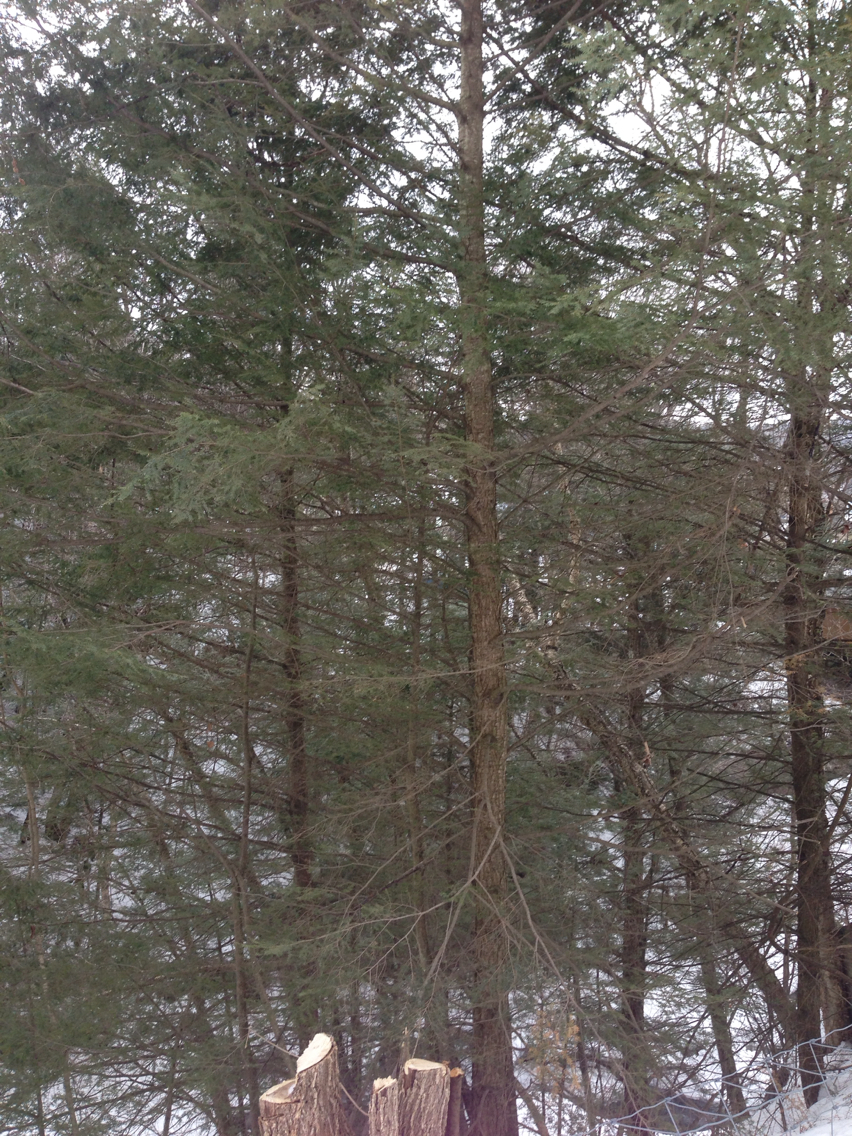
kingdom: Plantae
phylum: Tracheophyta
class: Pinopsida
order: Pinales
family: Pinaceae
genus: Tsuga
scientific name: Tsuga canadensis
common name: Eastern hemlock
